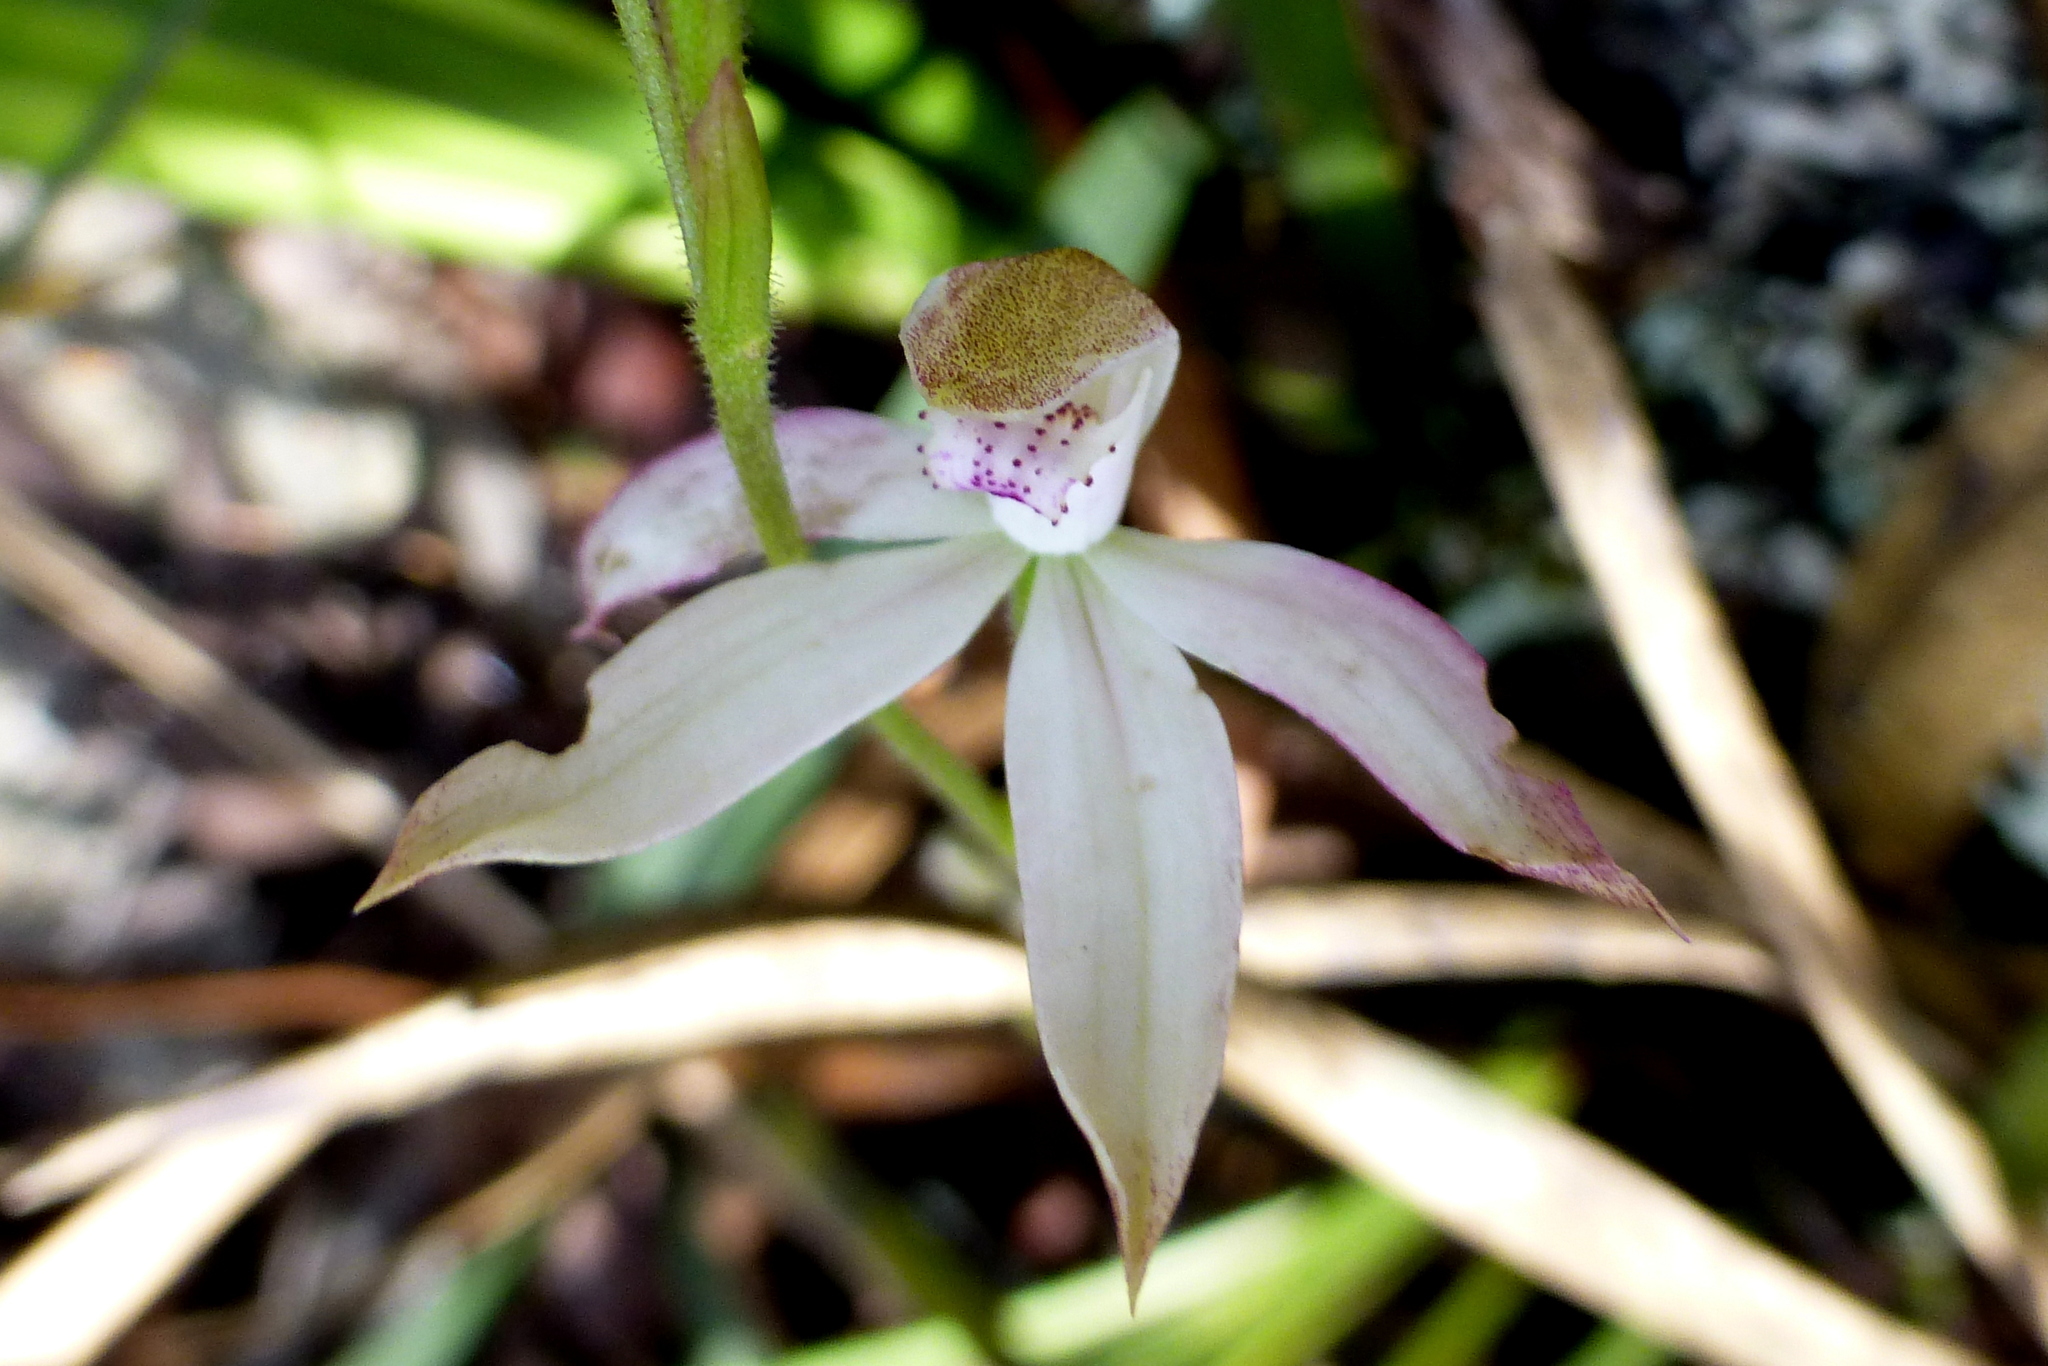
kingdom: Plantae
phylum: Tracheophyta
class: Liliopsida
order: Asparagales
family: Orchidaceae
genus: Caladenia
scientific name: Caladenia moschata
